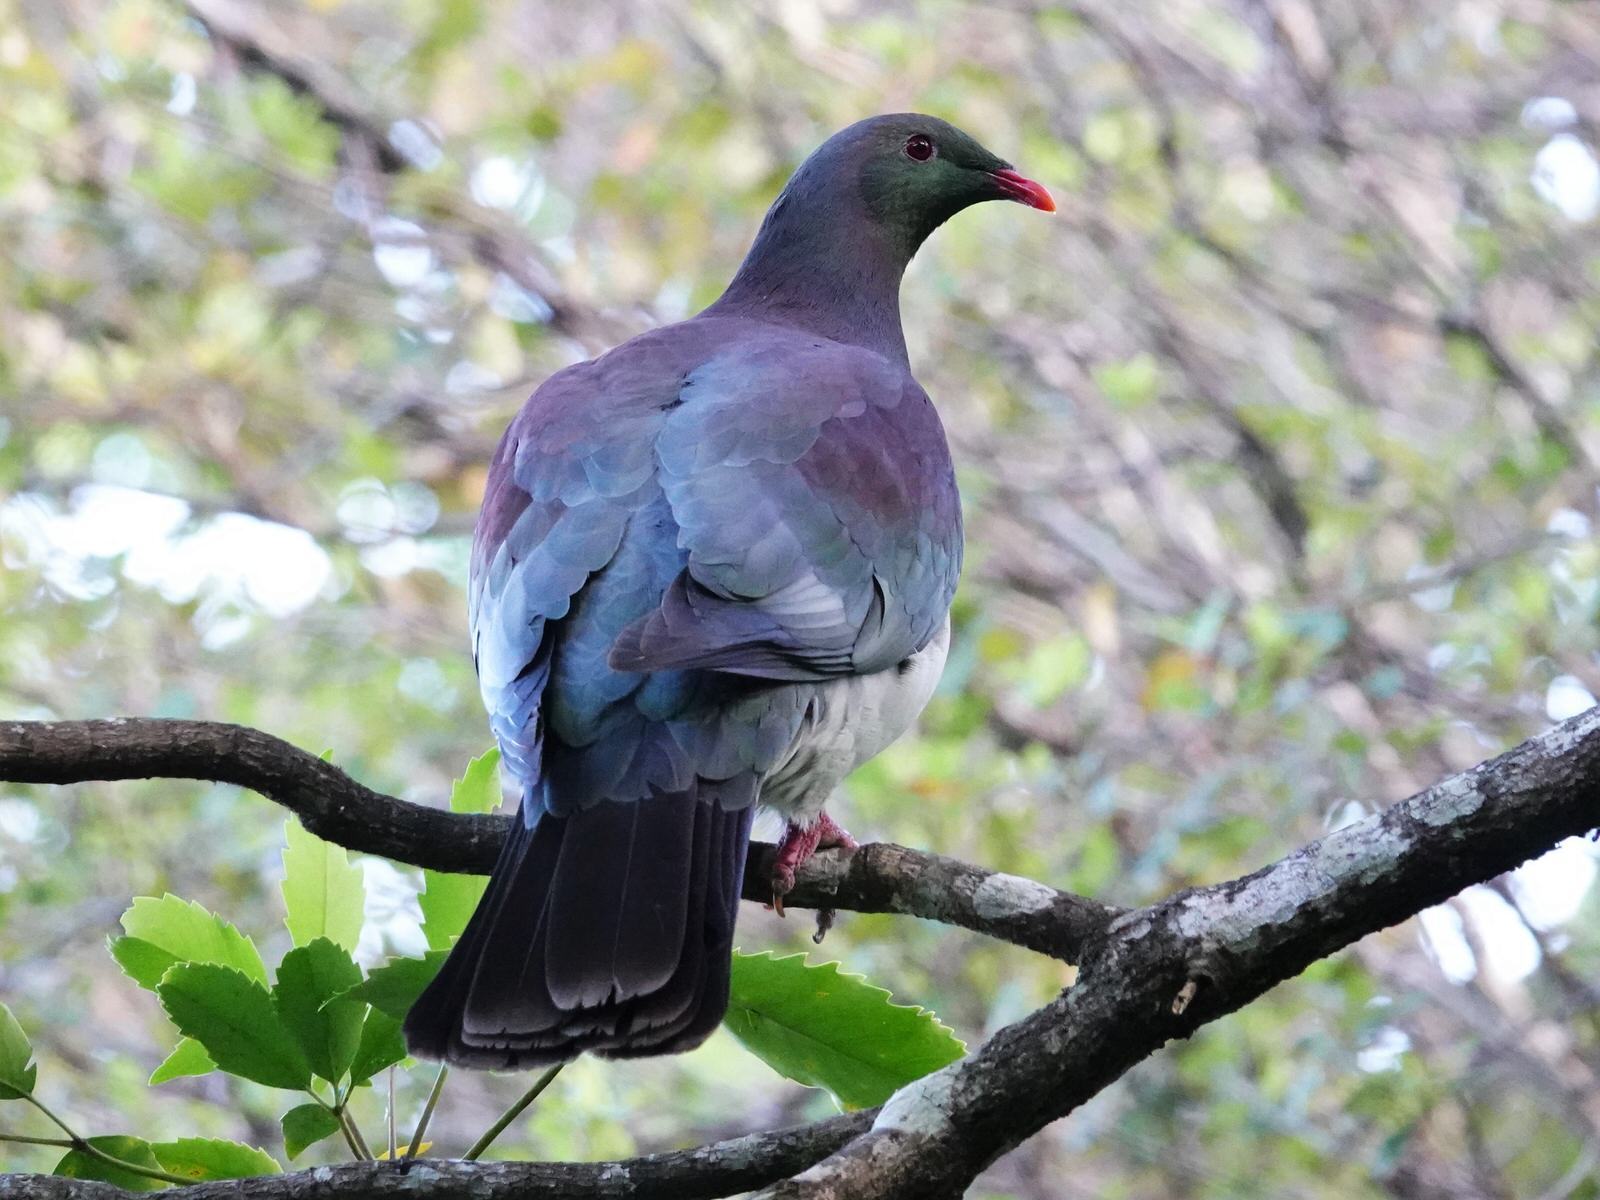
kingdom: Animalia
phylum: Chordata
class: Aves
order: Columbiformes
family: Columbidae
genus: Hemiphaga
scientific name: Hemiphaga novaeseelandiae
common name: New zealand pigeon
